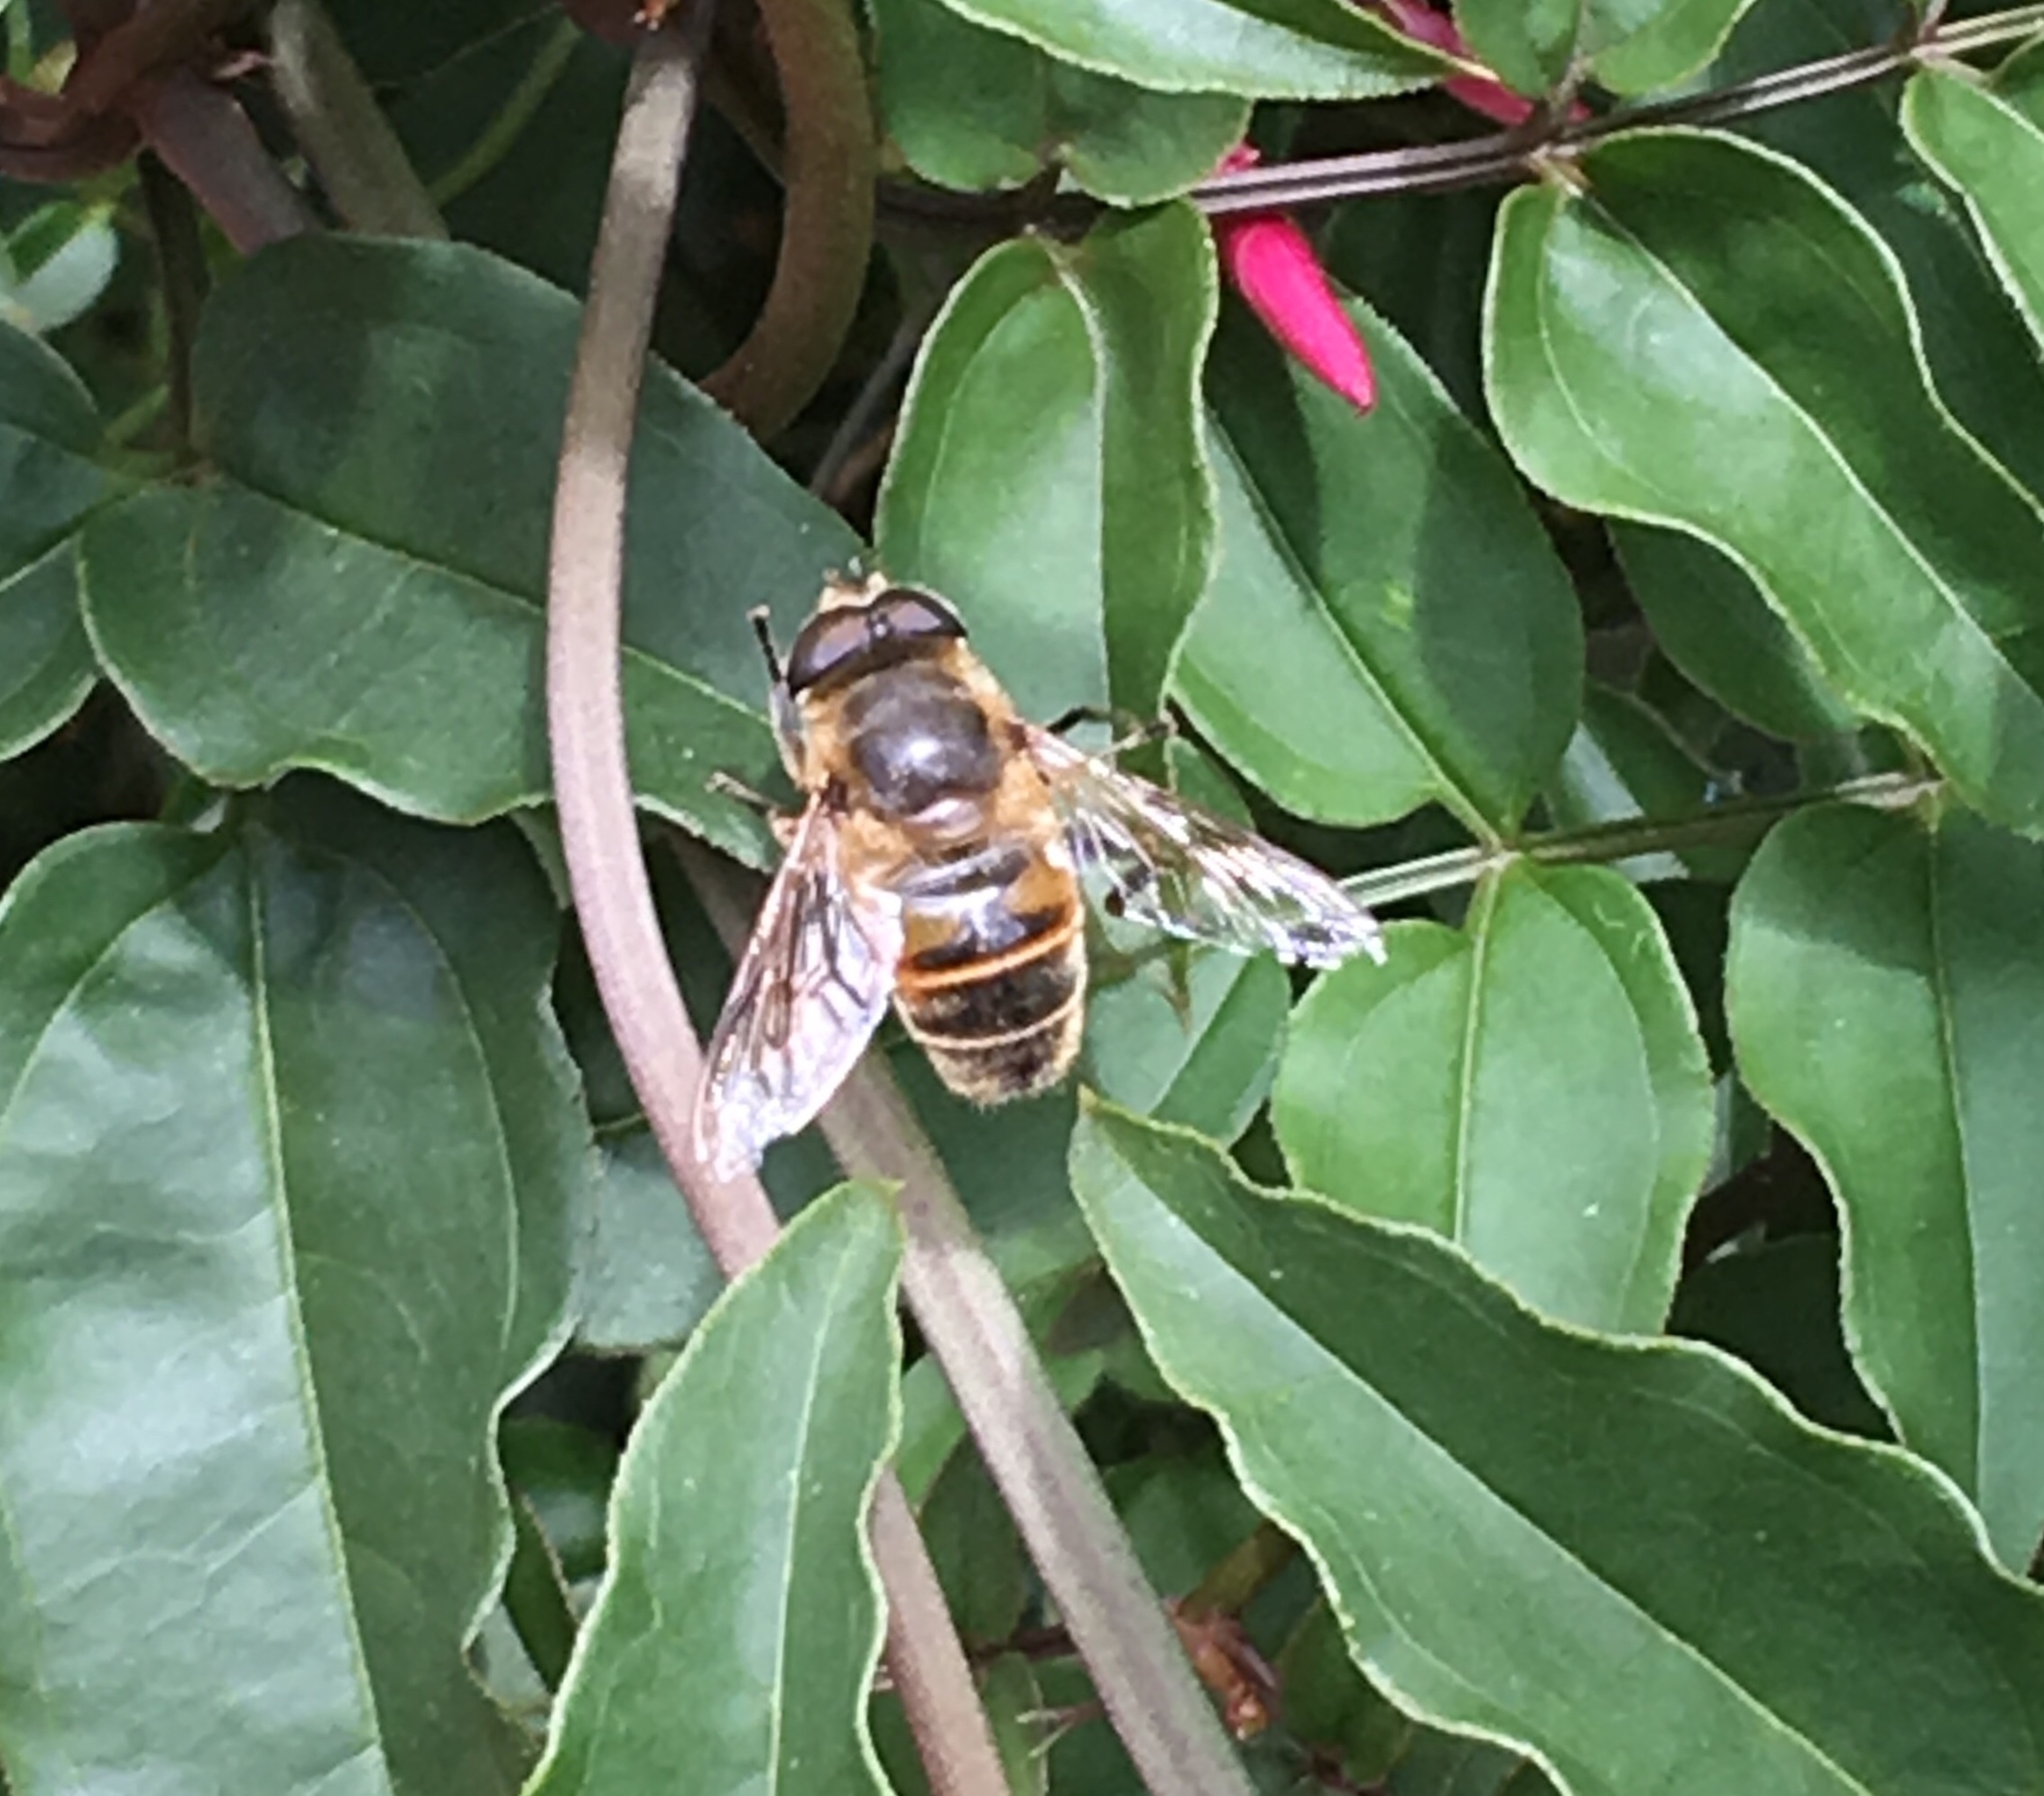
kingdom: Animalia
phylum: Arthropoda
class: Insecta
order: Diptera
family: Syrphidae
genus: Eristalis
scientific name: Eristalis tenax
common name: Drone fly
